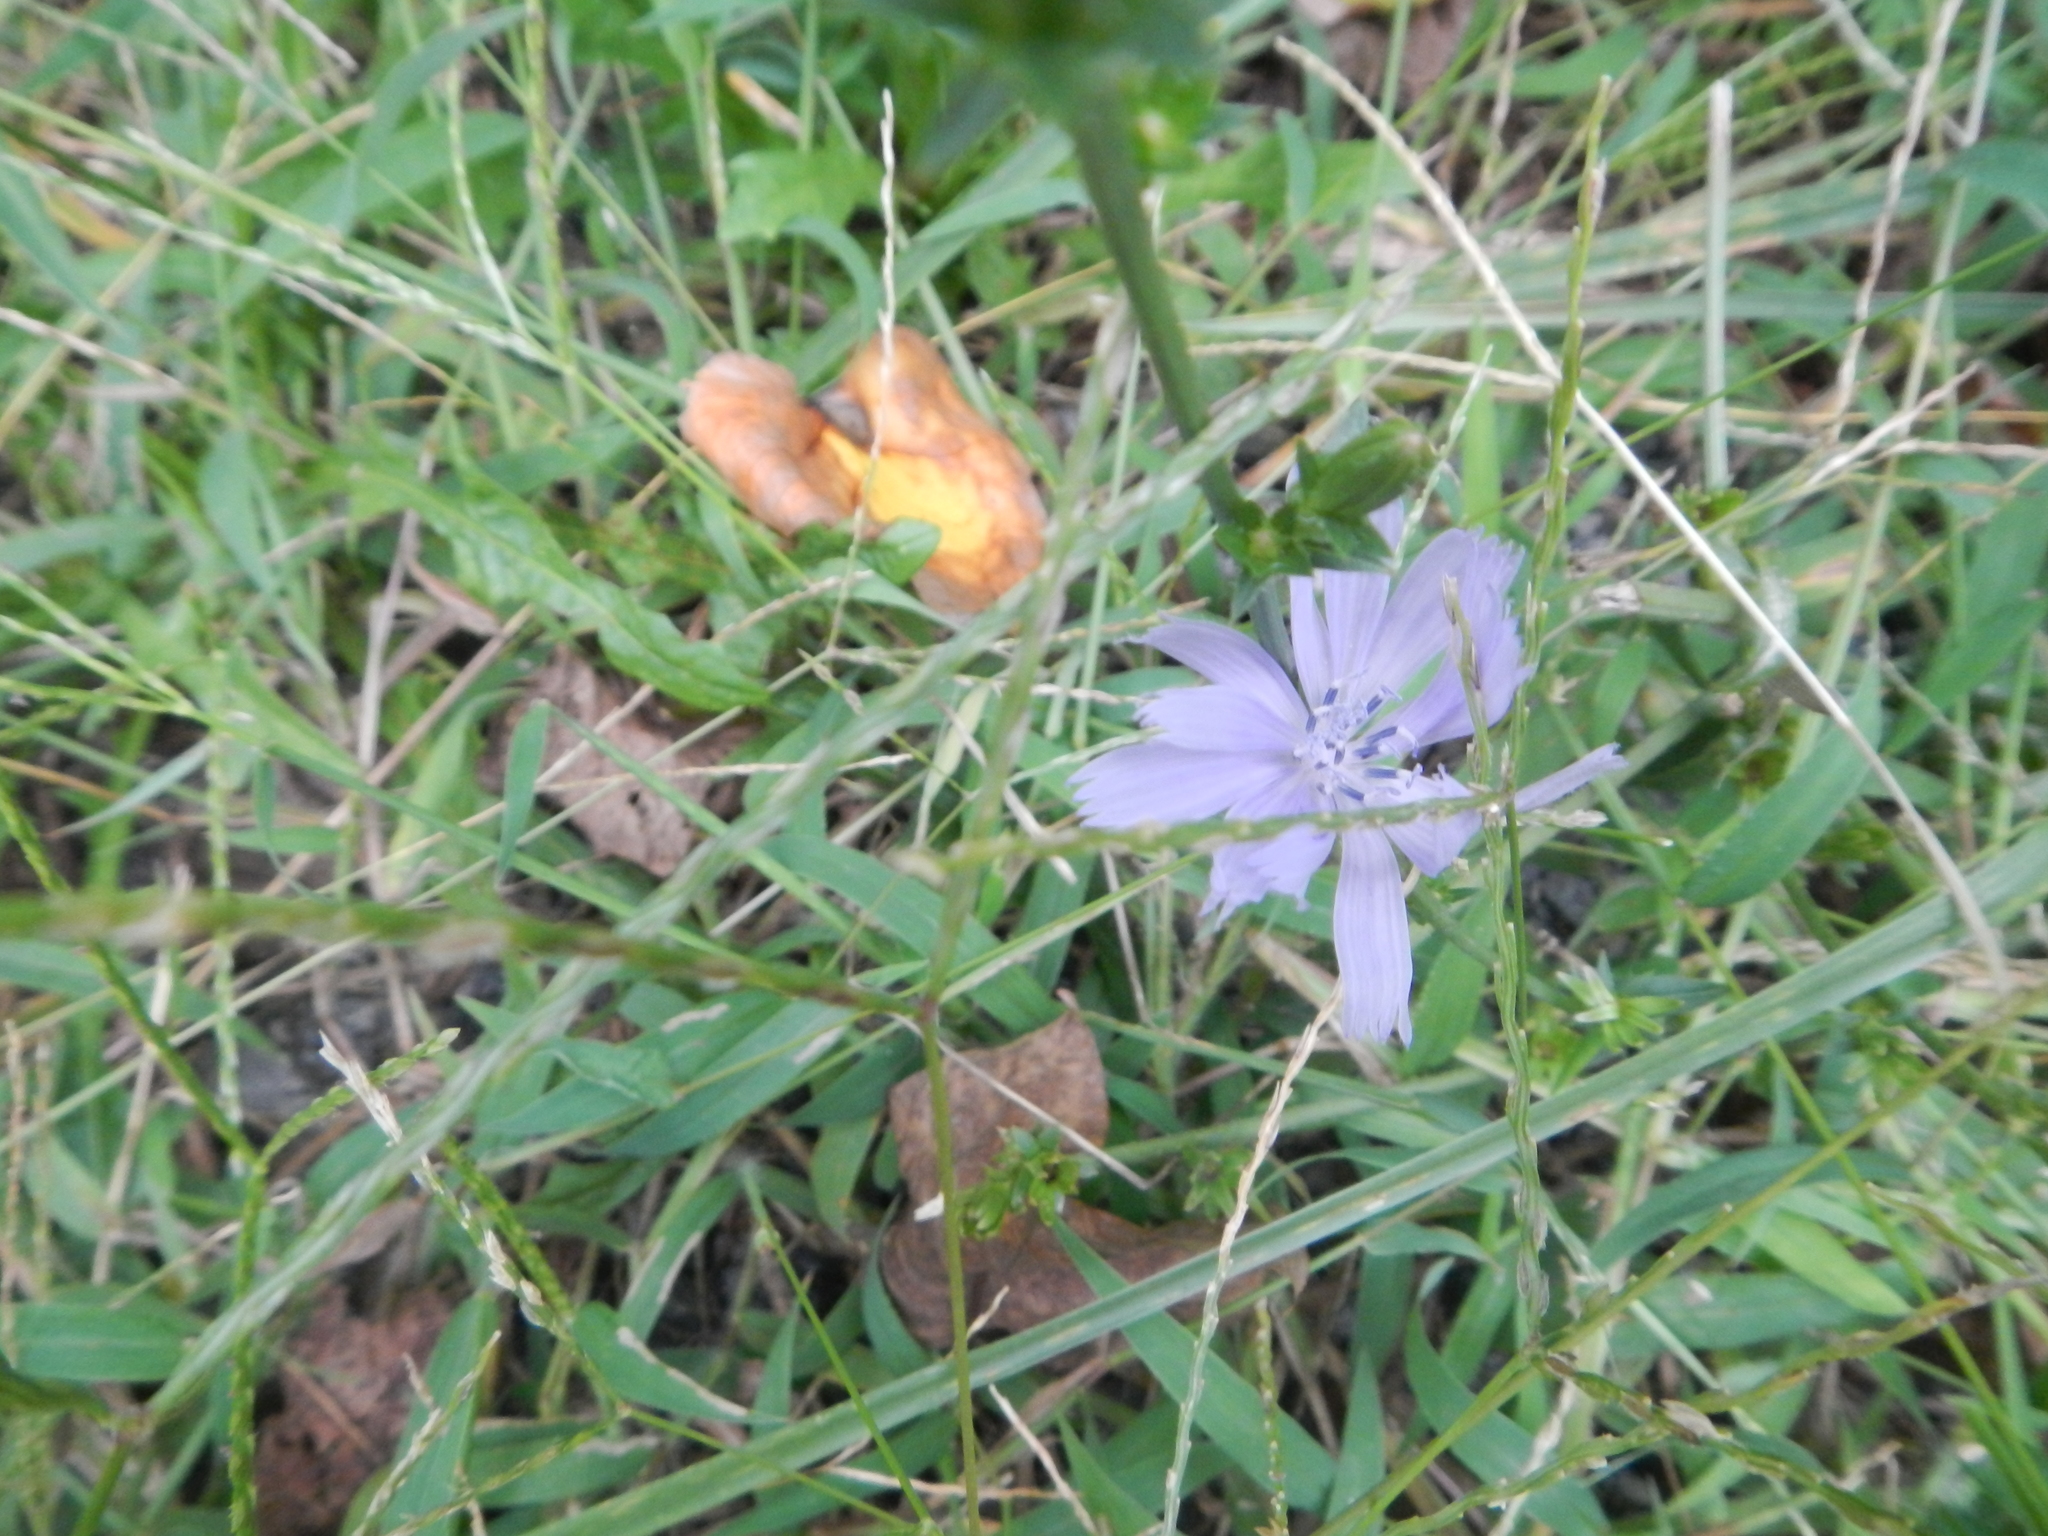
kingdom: Plantae
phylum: Tracheophyta
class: Magnoliopsida
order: Asterales
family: Asteraceae
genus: Cichorium
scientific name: Cichorium intybus
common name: Chicory
